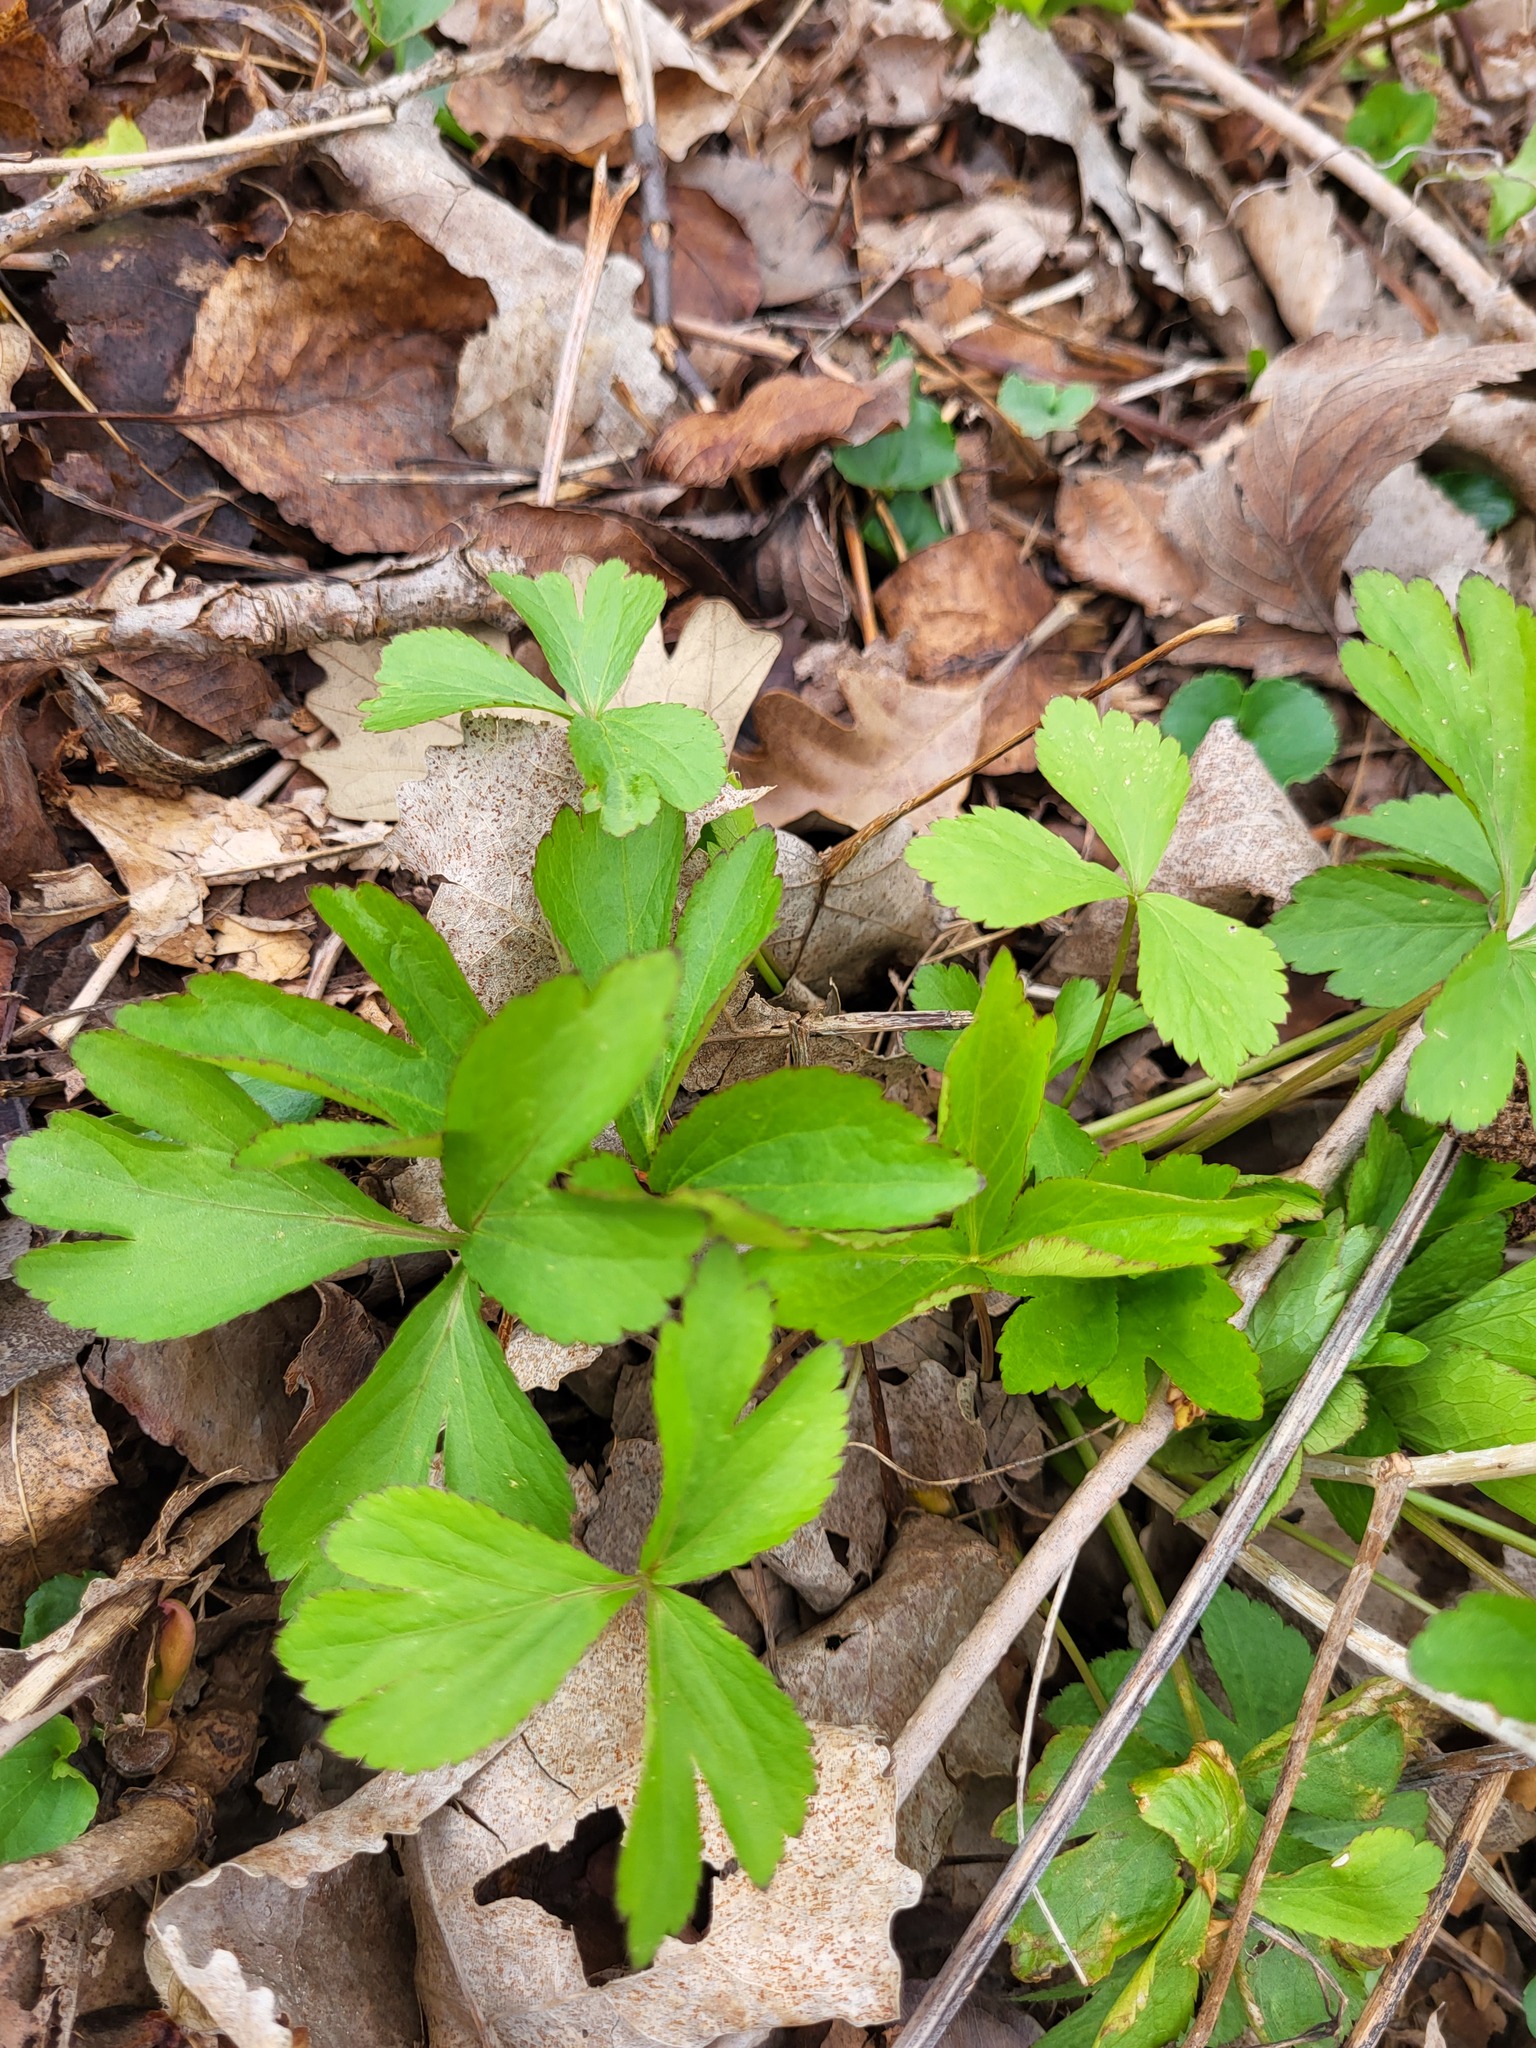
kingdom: Plantae
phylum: Tracheophyta
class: Magnoliopsida
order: Ranunculales
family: Ranunculaceae
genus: Anemone
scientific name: Anemone quinquefolia
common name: Wood anemone
